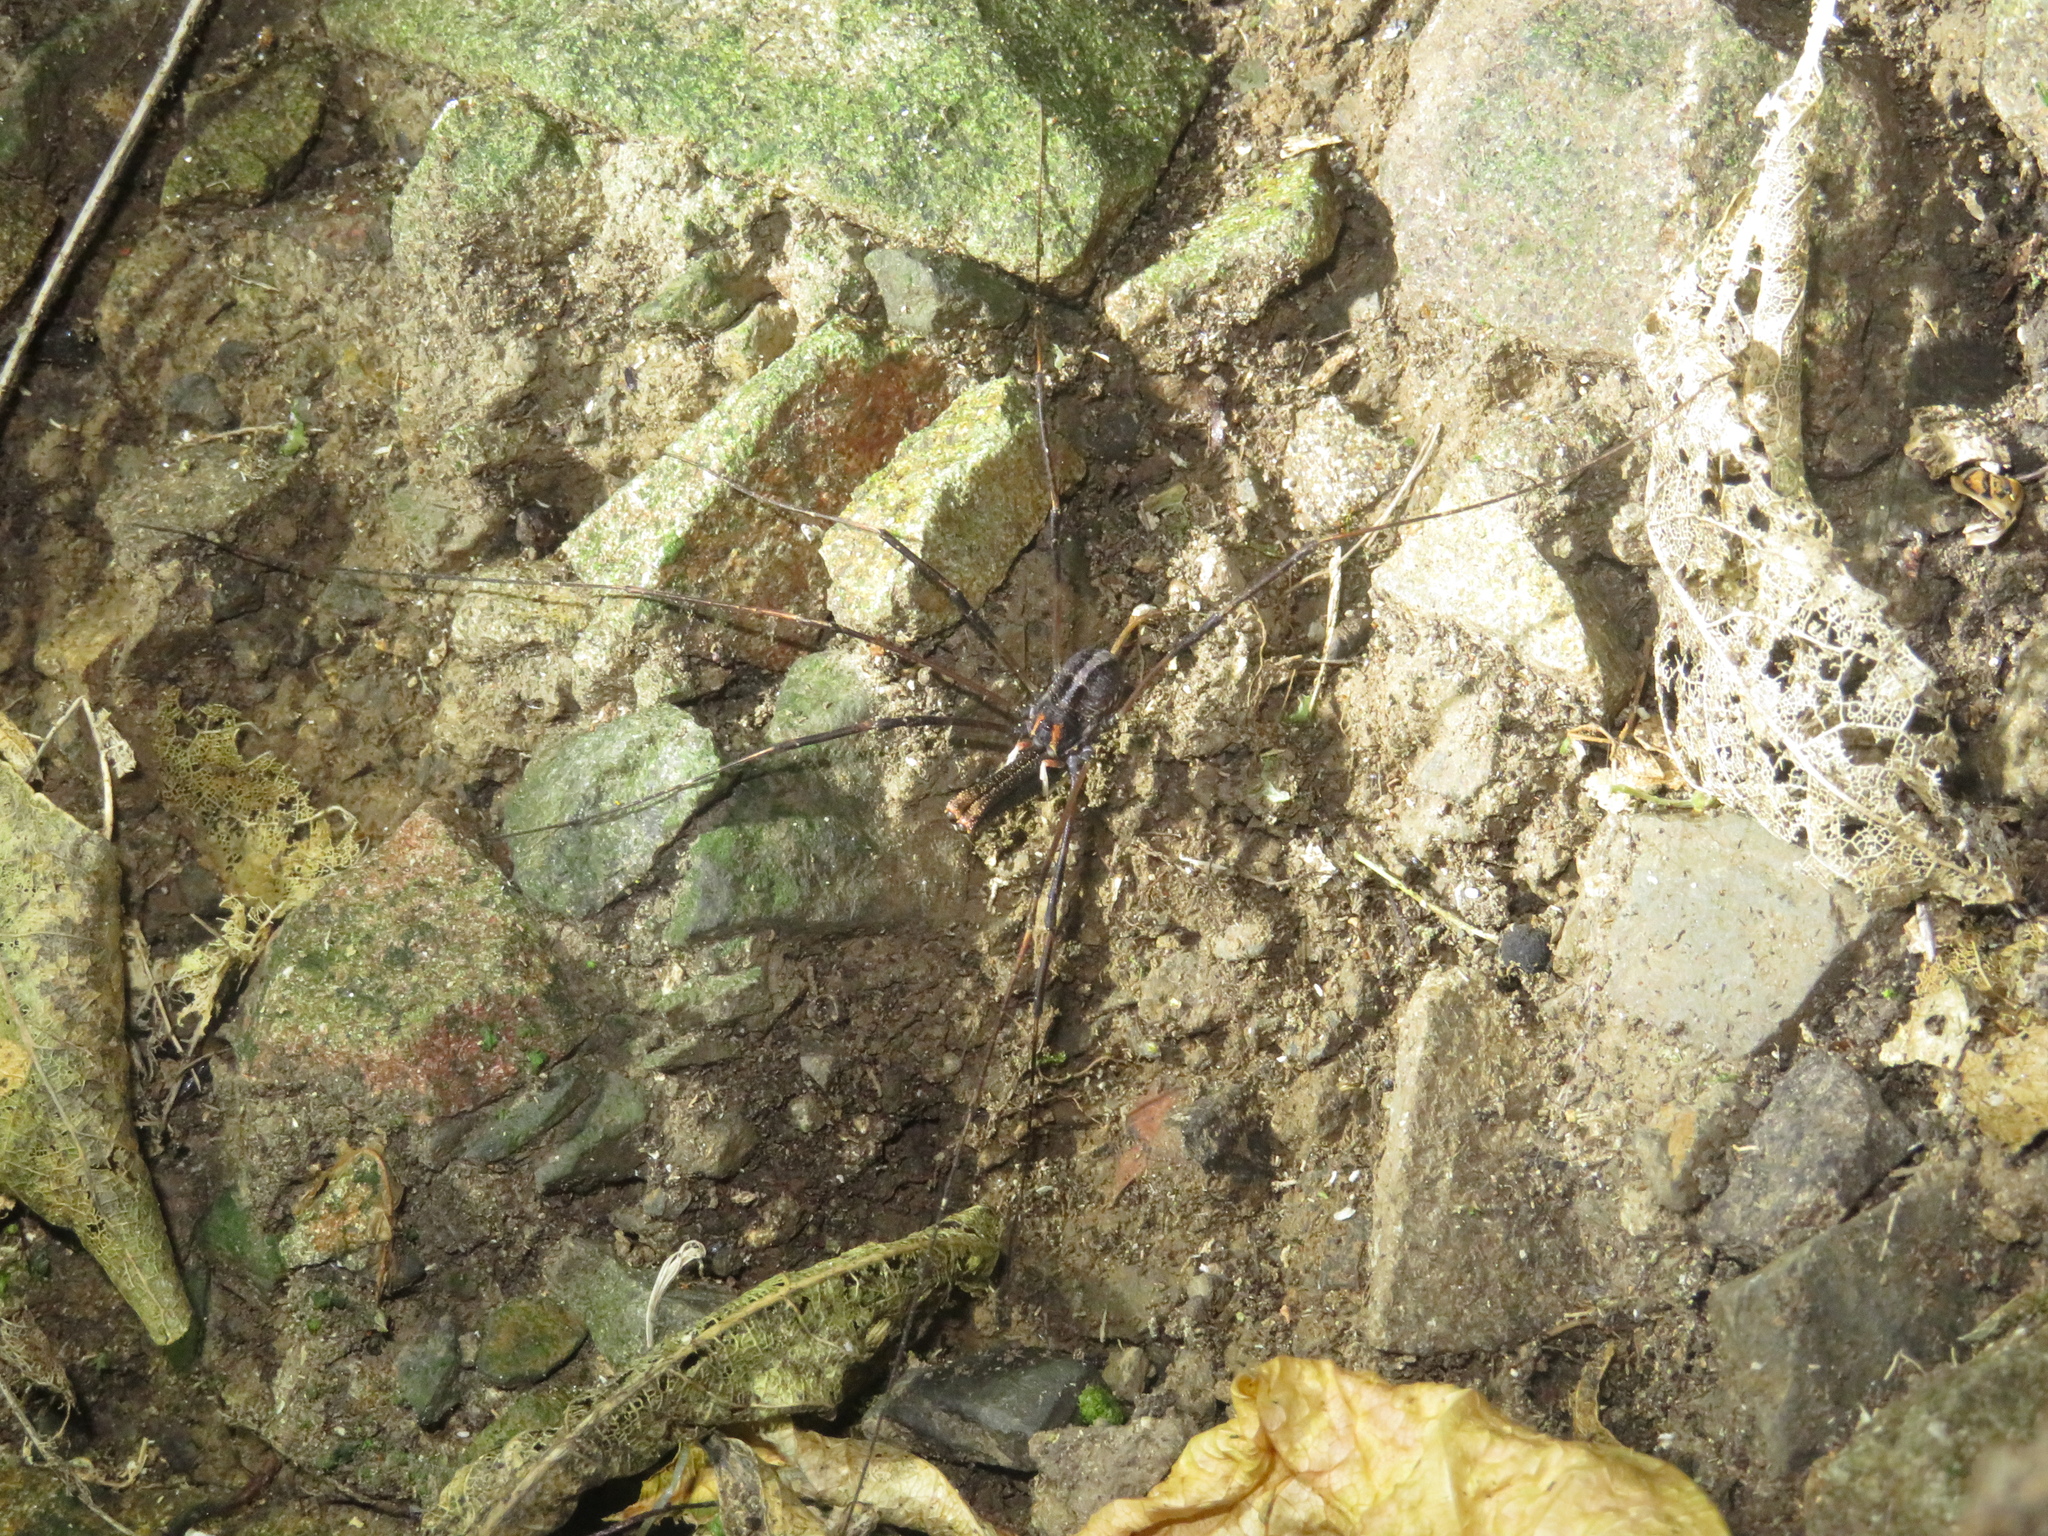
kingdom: Animalia
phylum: Arthropoda
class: Arachnida
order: Opiliones
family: Neopilionidae
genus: Forsteropsalis
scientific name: Forsteropsalis inconstans
